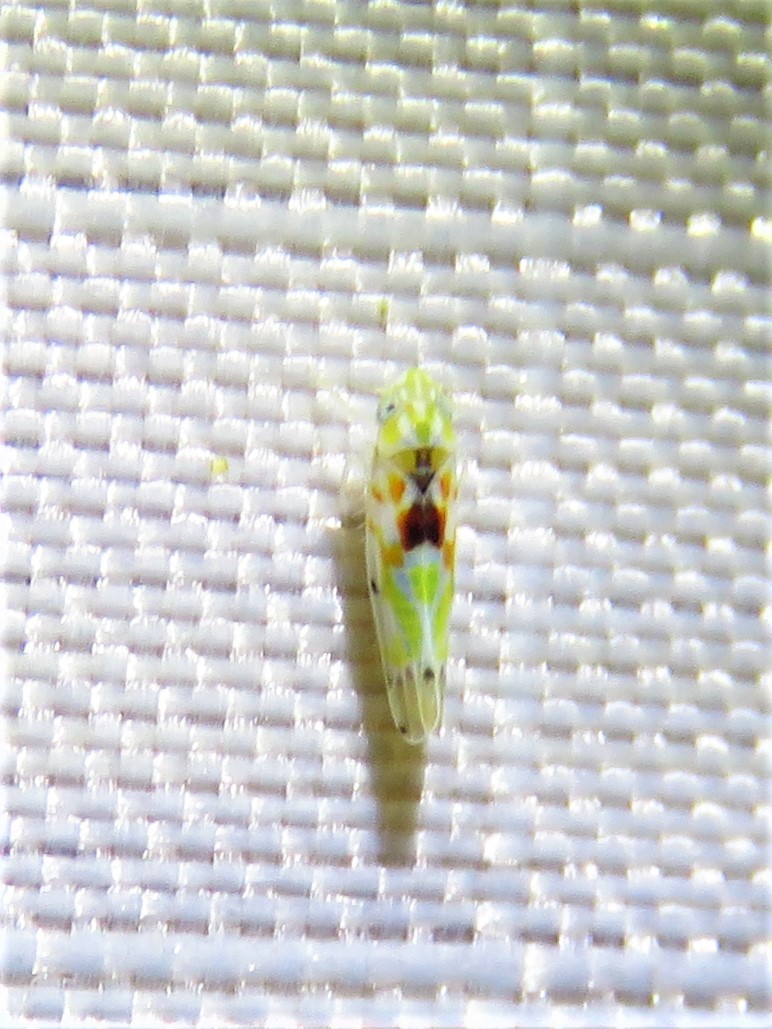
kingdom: Animalia
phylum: Arthropoda
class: Insecta
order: Hemiptera
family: Cicadellidae
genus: Erythroneura
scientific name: Erythroneura octonotata
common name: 8-spotted leafhopper
